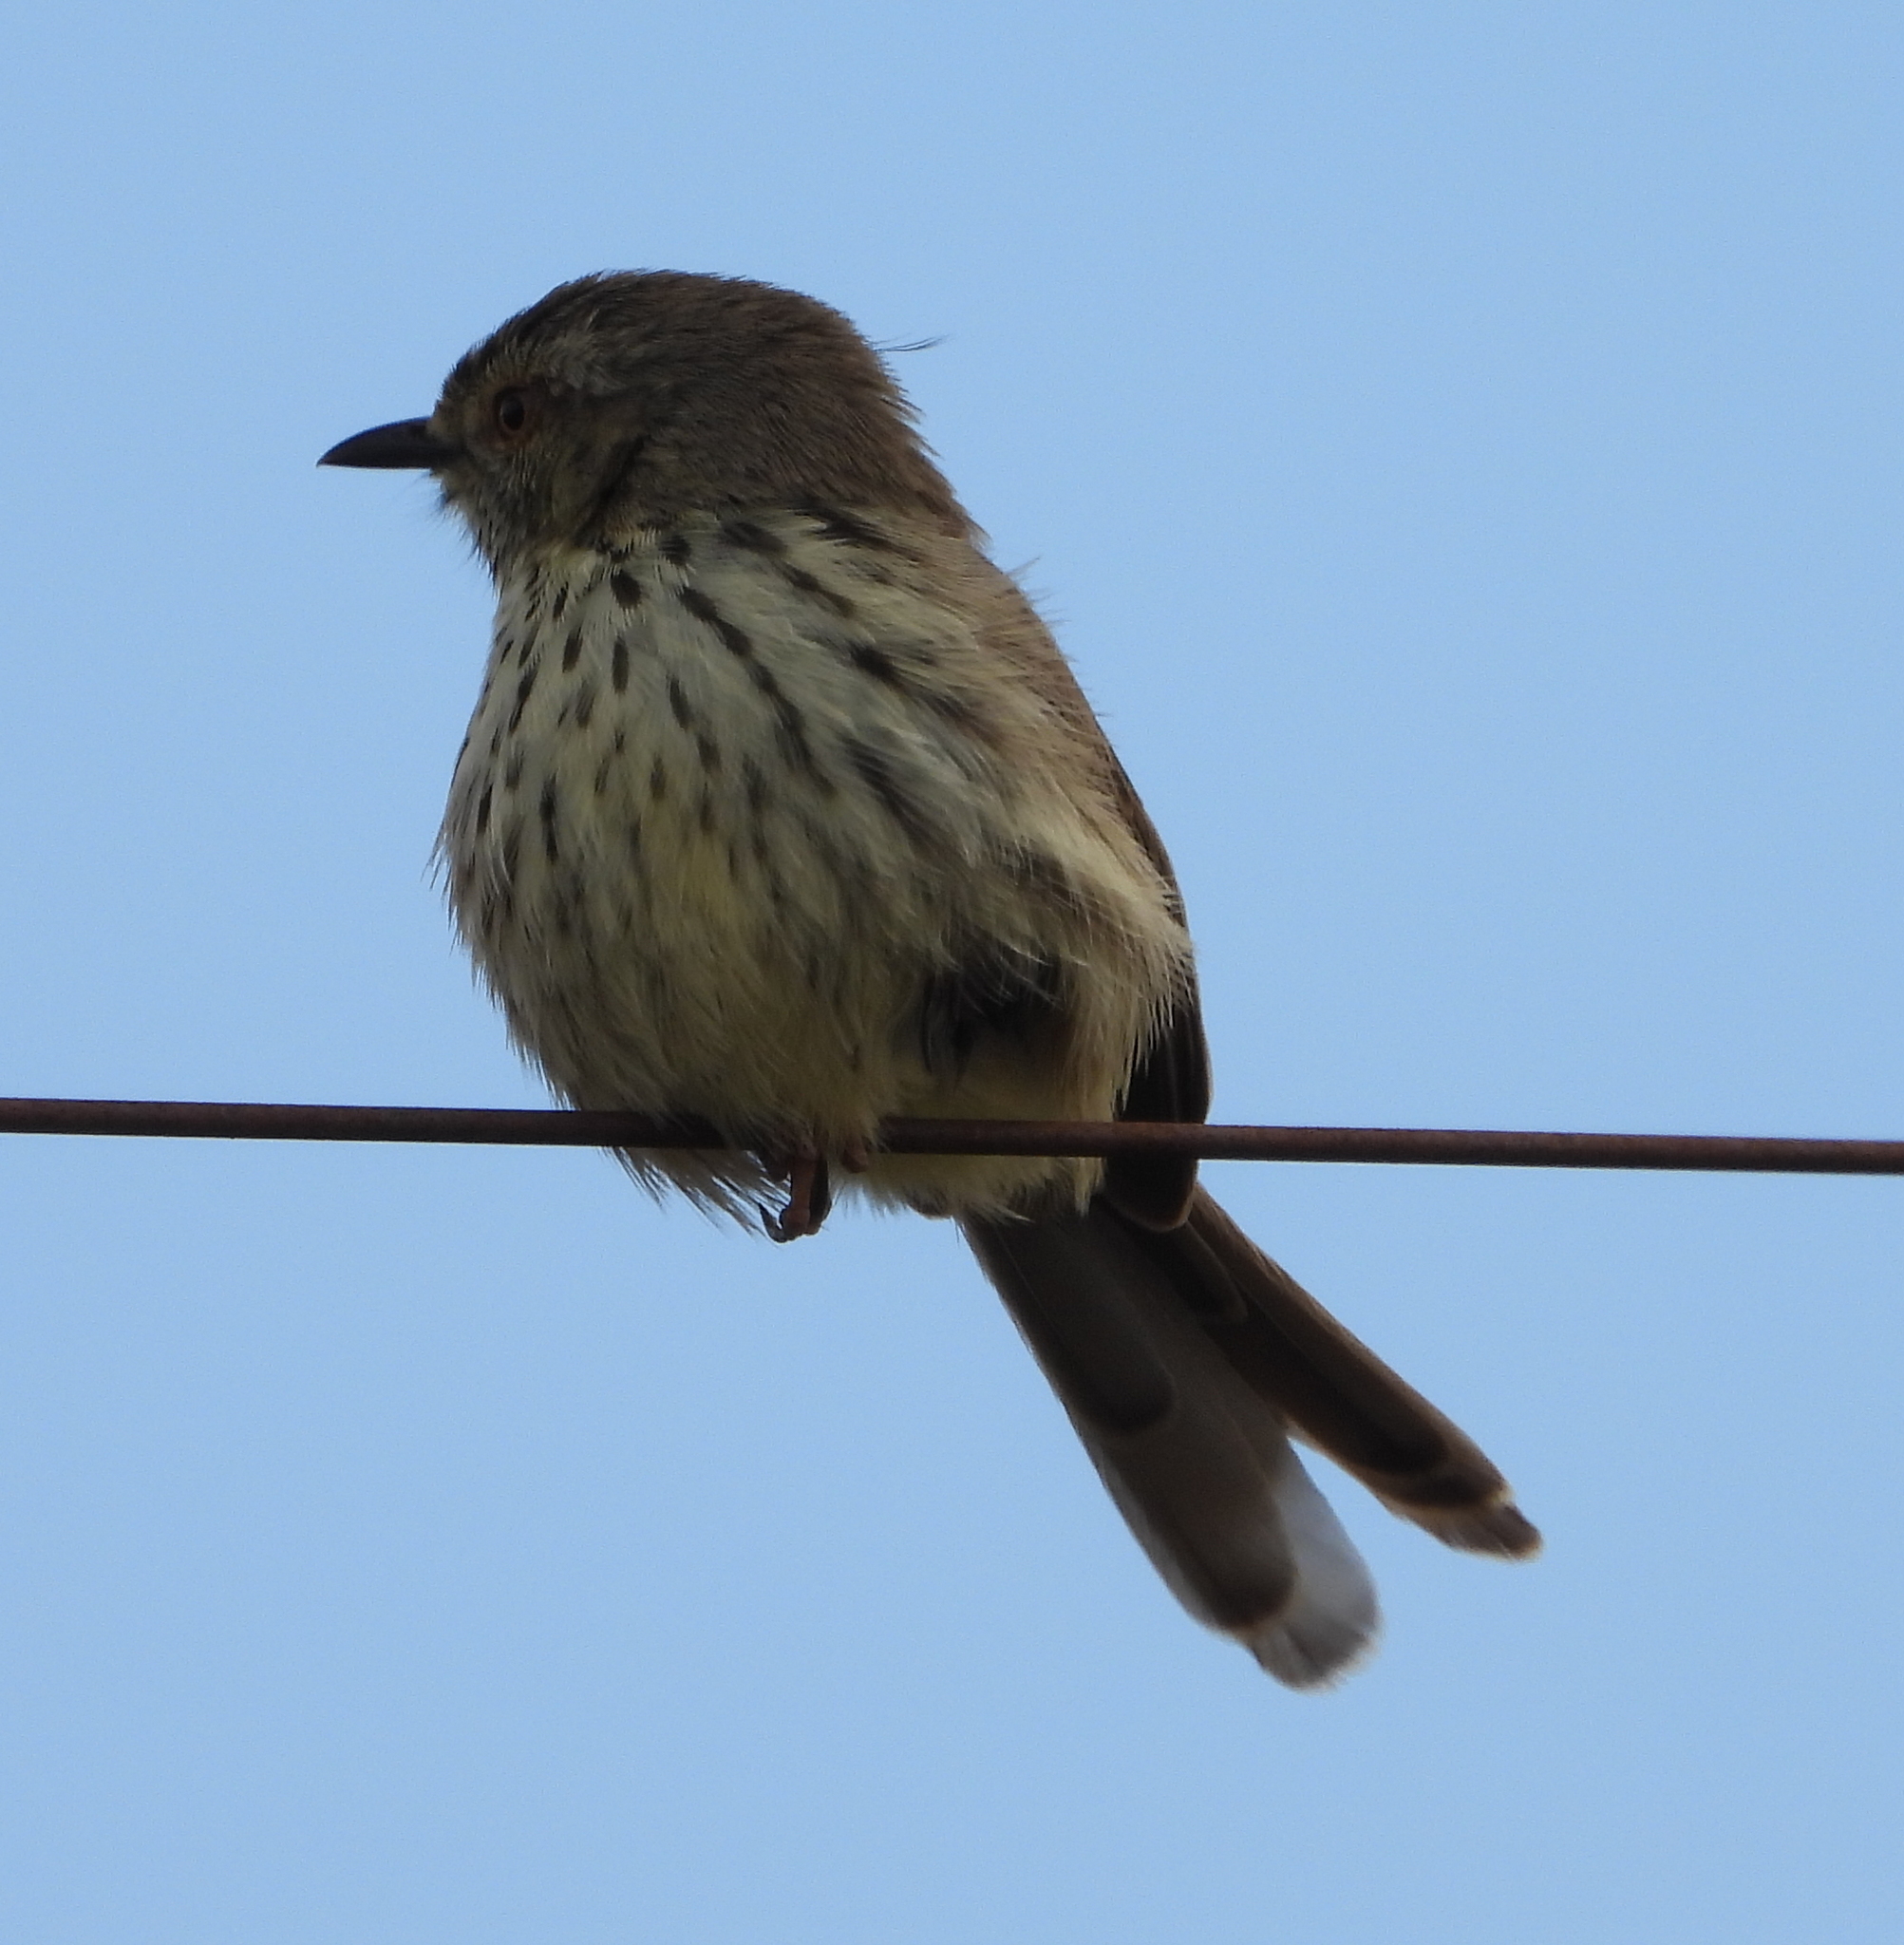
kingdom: Animalia
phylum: Chordata
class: Aves
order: Passeriformes
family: Cisticolidae
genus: Prinia
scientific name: Prinia maculosa
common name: Karoo prinia
